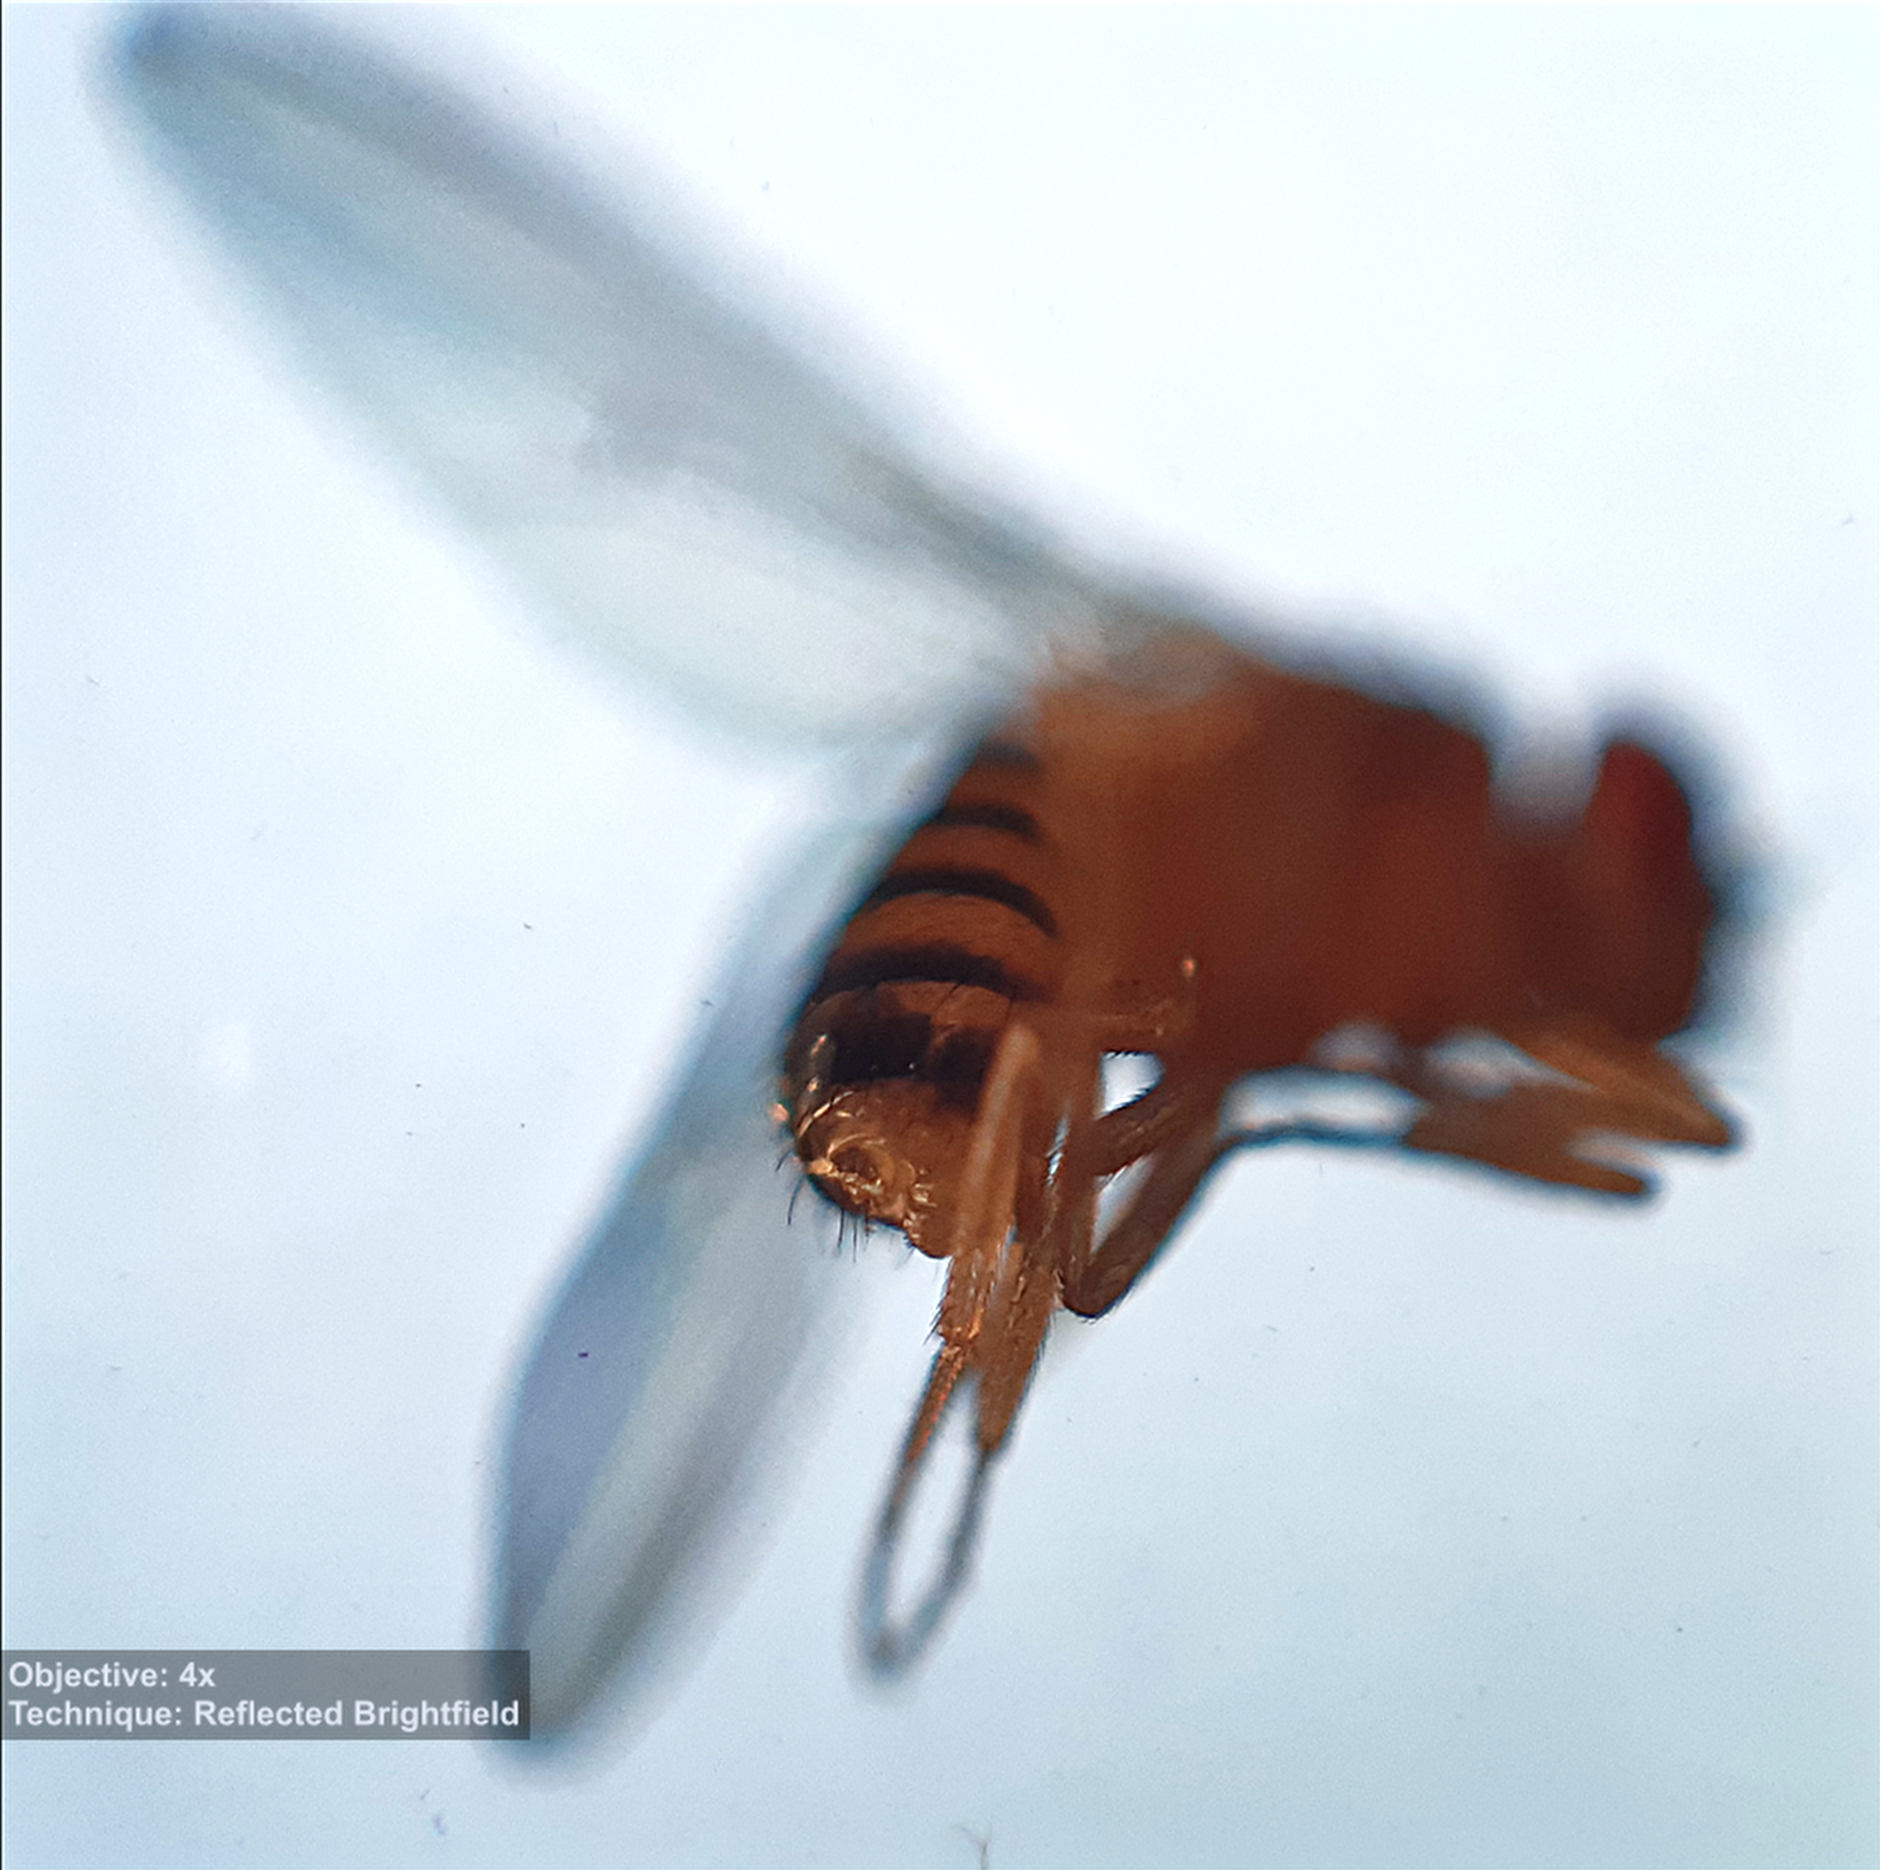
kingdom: Animalia
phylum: Arthropoda
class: Insecta
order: Diptera
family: Drosophilidae
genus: Drosophila
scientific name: Drosophila melanogaster
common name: Pomace fly
